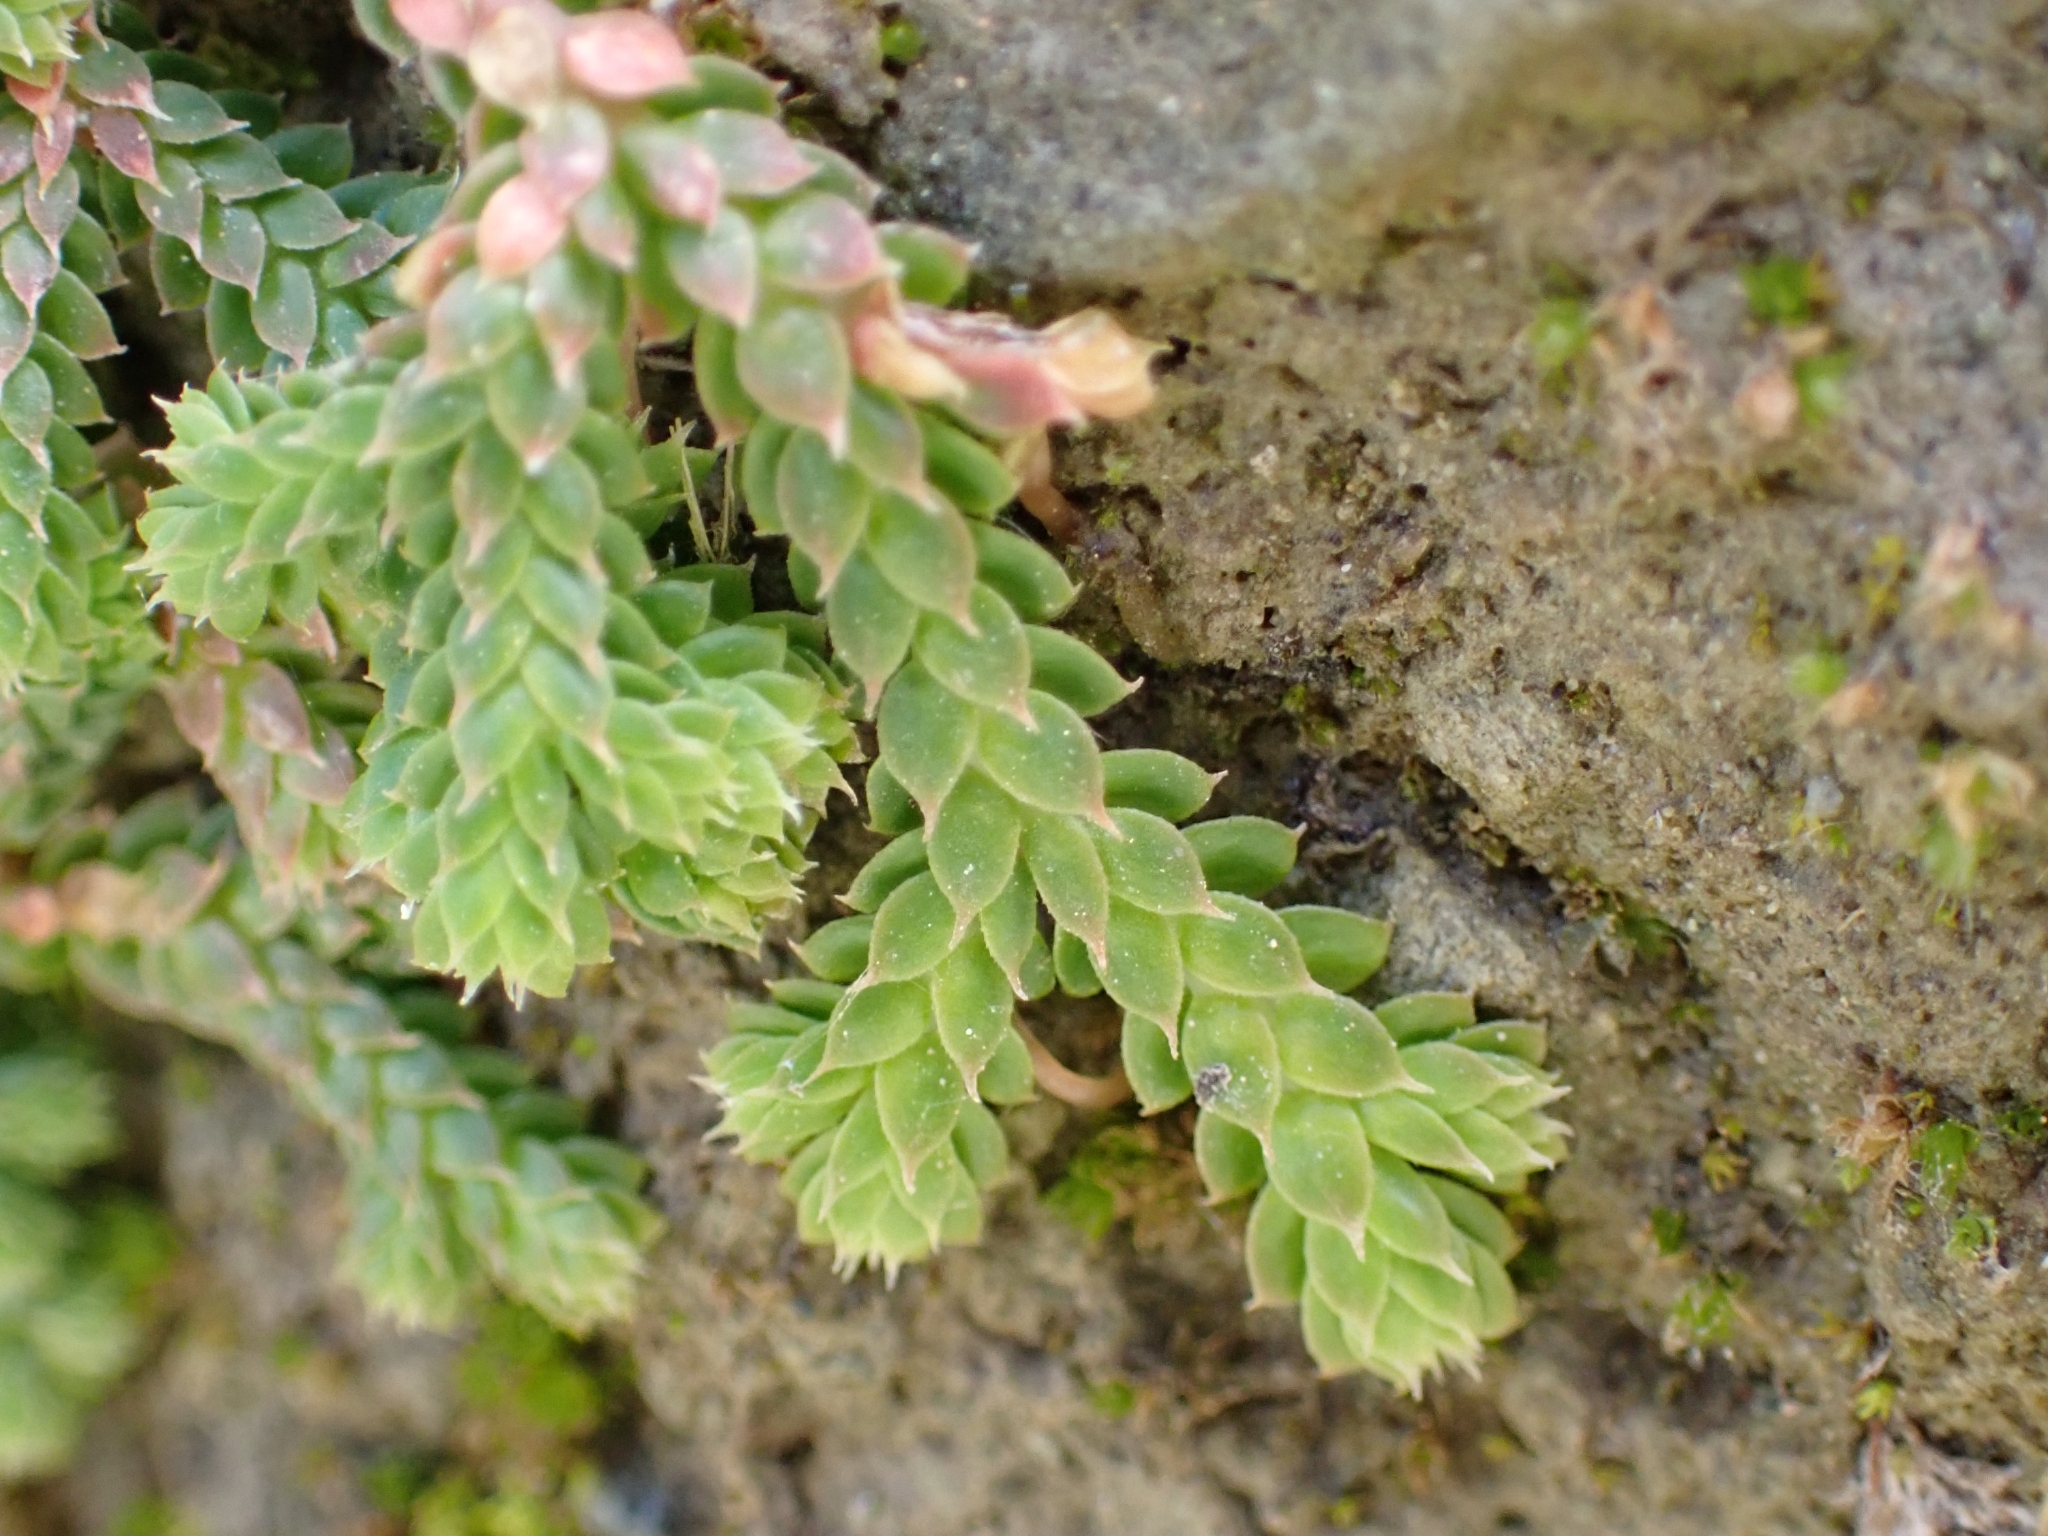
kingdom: Plantae
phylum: Tracheophyta
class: Lycopodiopsida
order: Selaginellales
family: Selaginellaceae
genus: Selaginella
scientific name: Selaginella denticulata
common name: Toothed-leaved clubmoss
